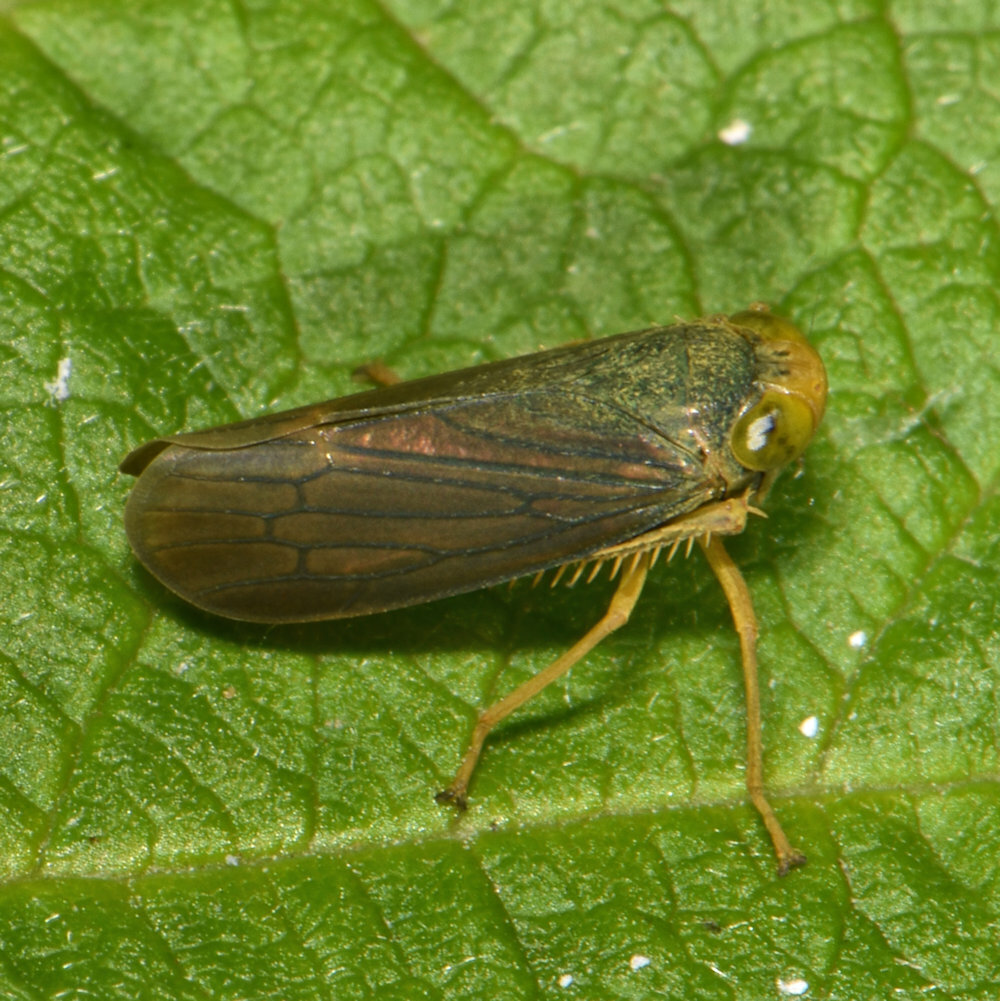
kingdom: Animalia
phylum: Arthropoda
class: Insecta
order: Hemiptera
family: Cicadellidae
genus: Jikradia
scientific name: Jikradia olitoria
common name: Coppery leafhopper
